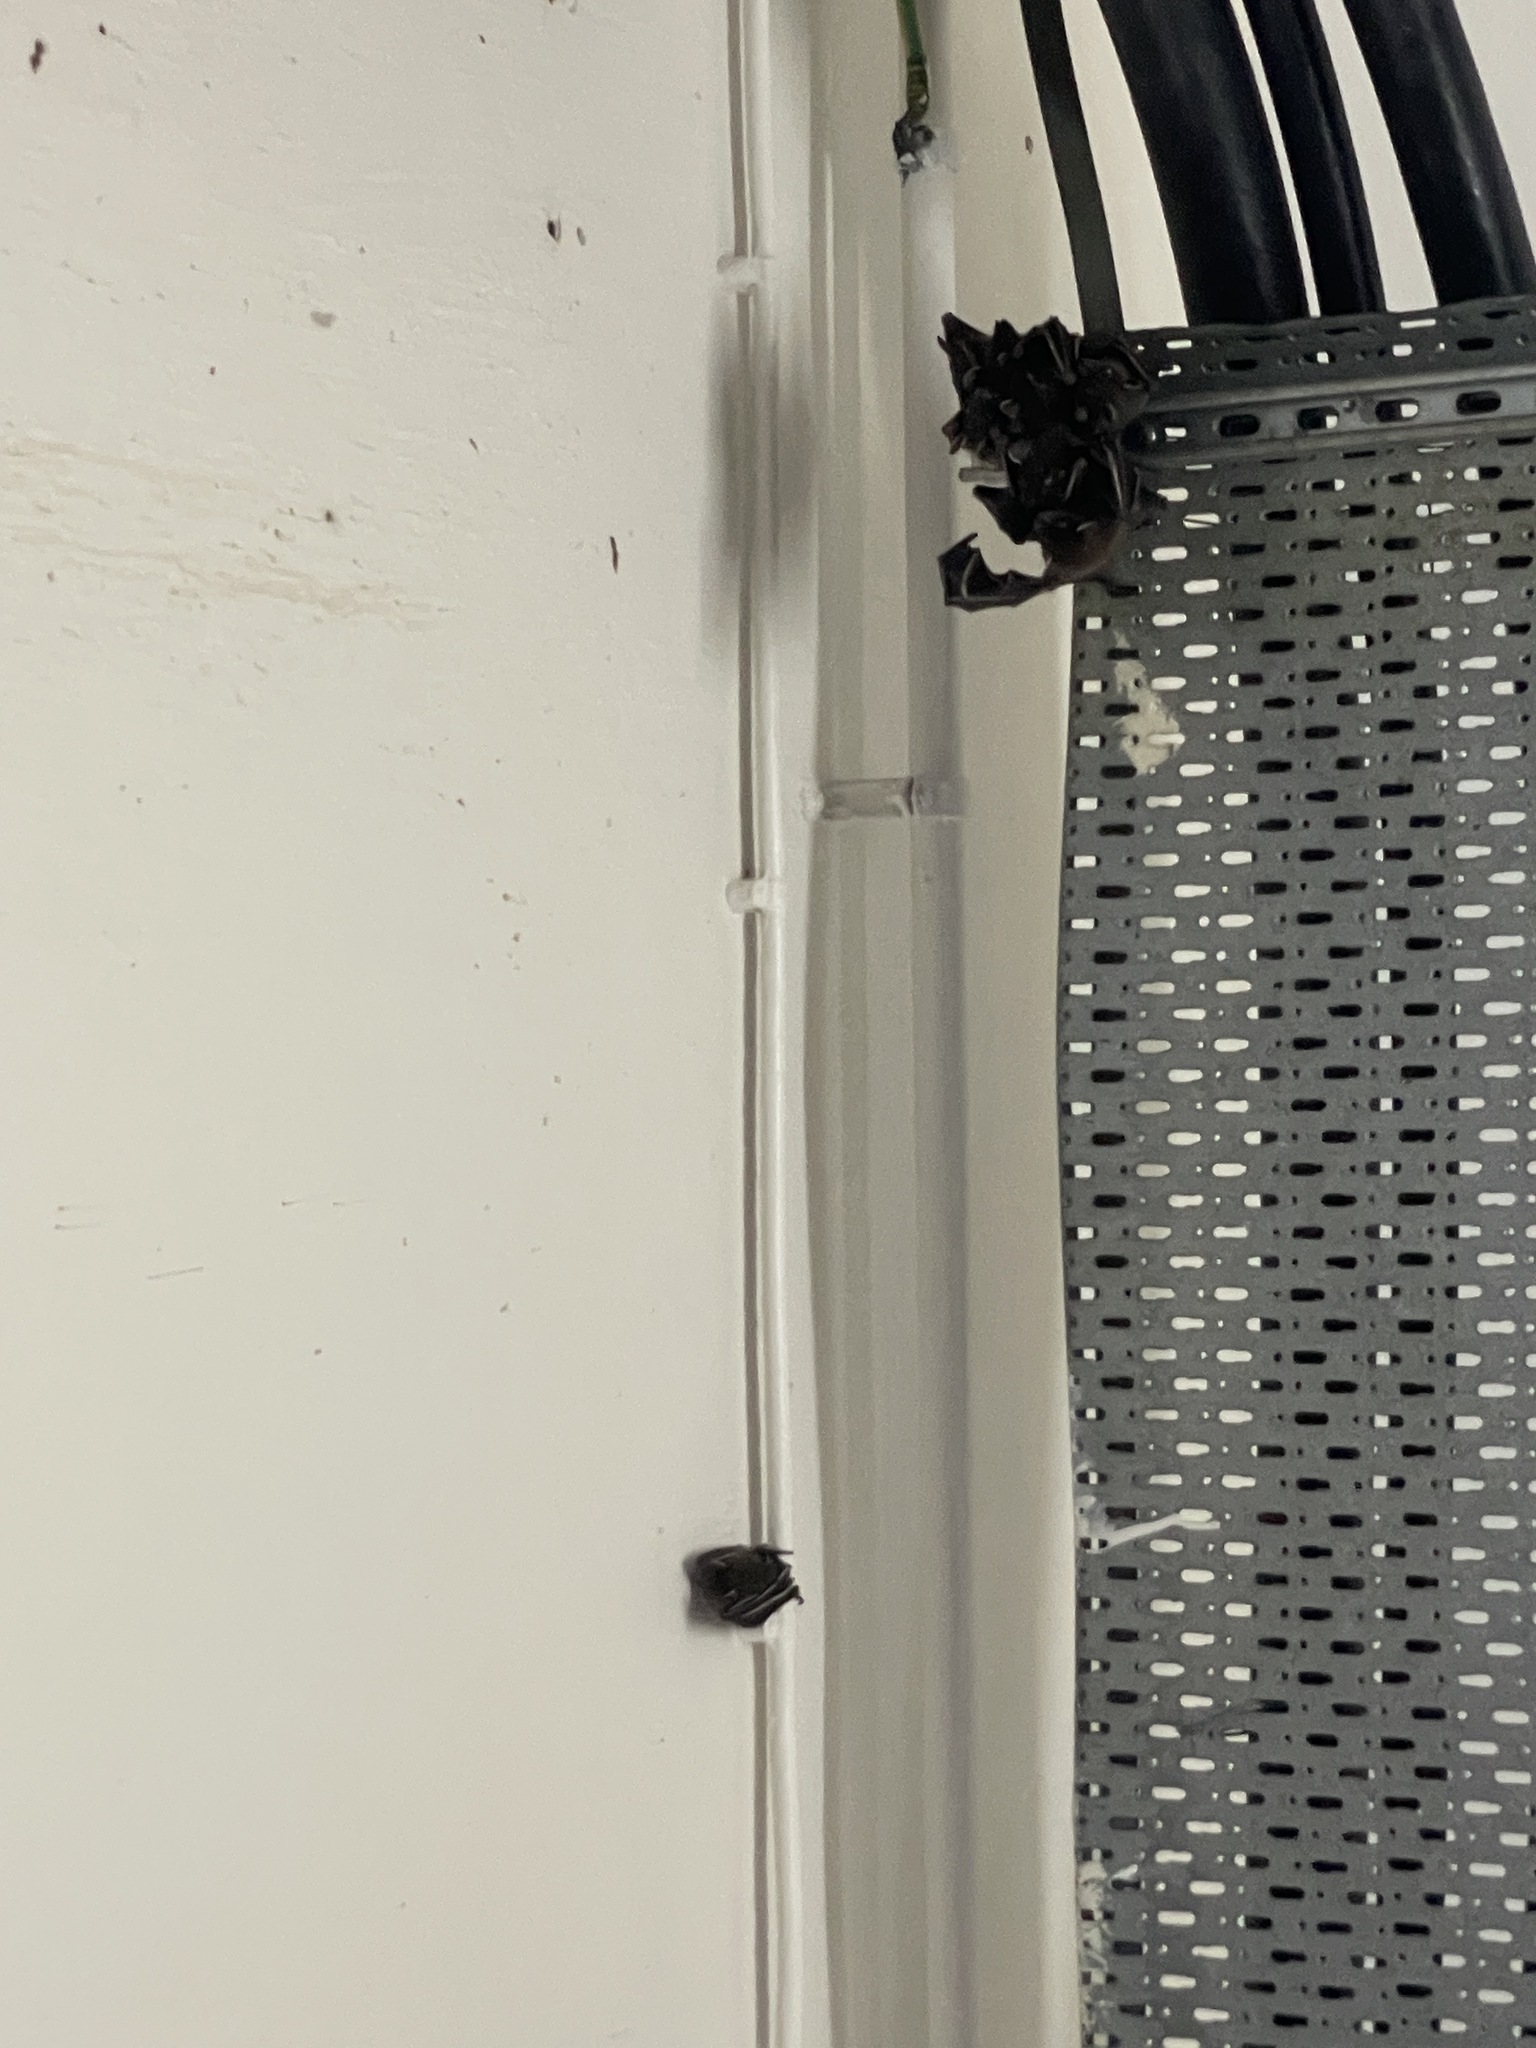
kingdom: Animalia
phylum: Chordata
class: Mammalia
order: Chiroptera
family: Pteropodidae
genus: Cynopterus
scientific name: Cynopterus sphinx
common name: Greater short-nosed fruit bat
